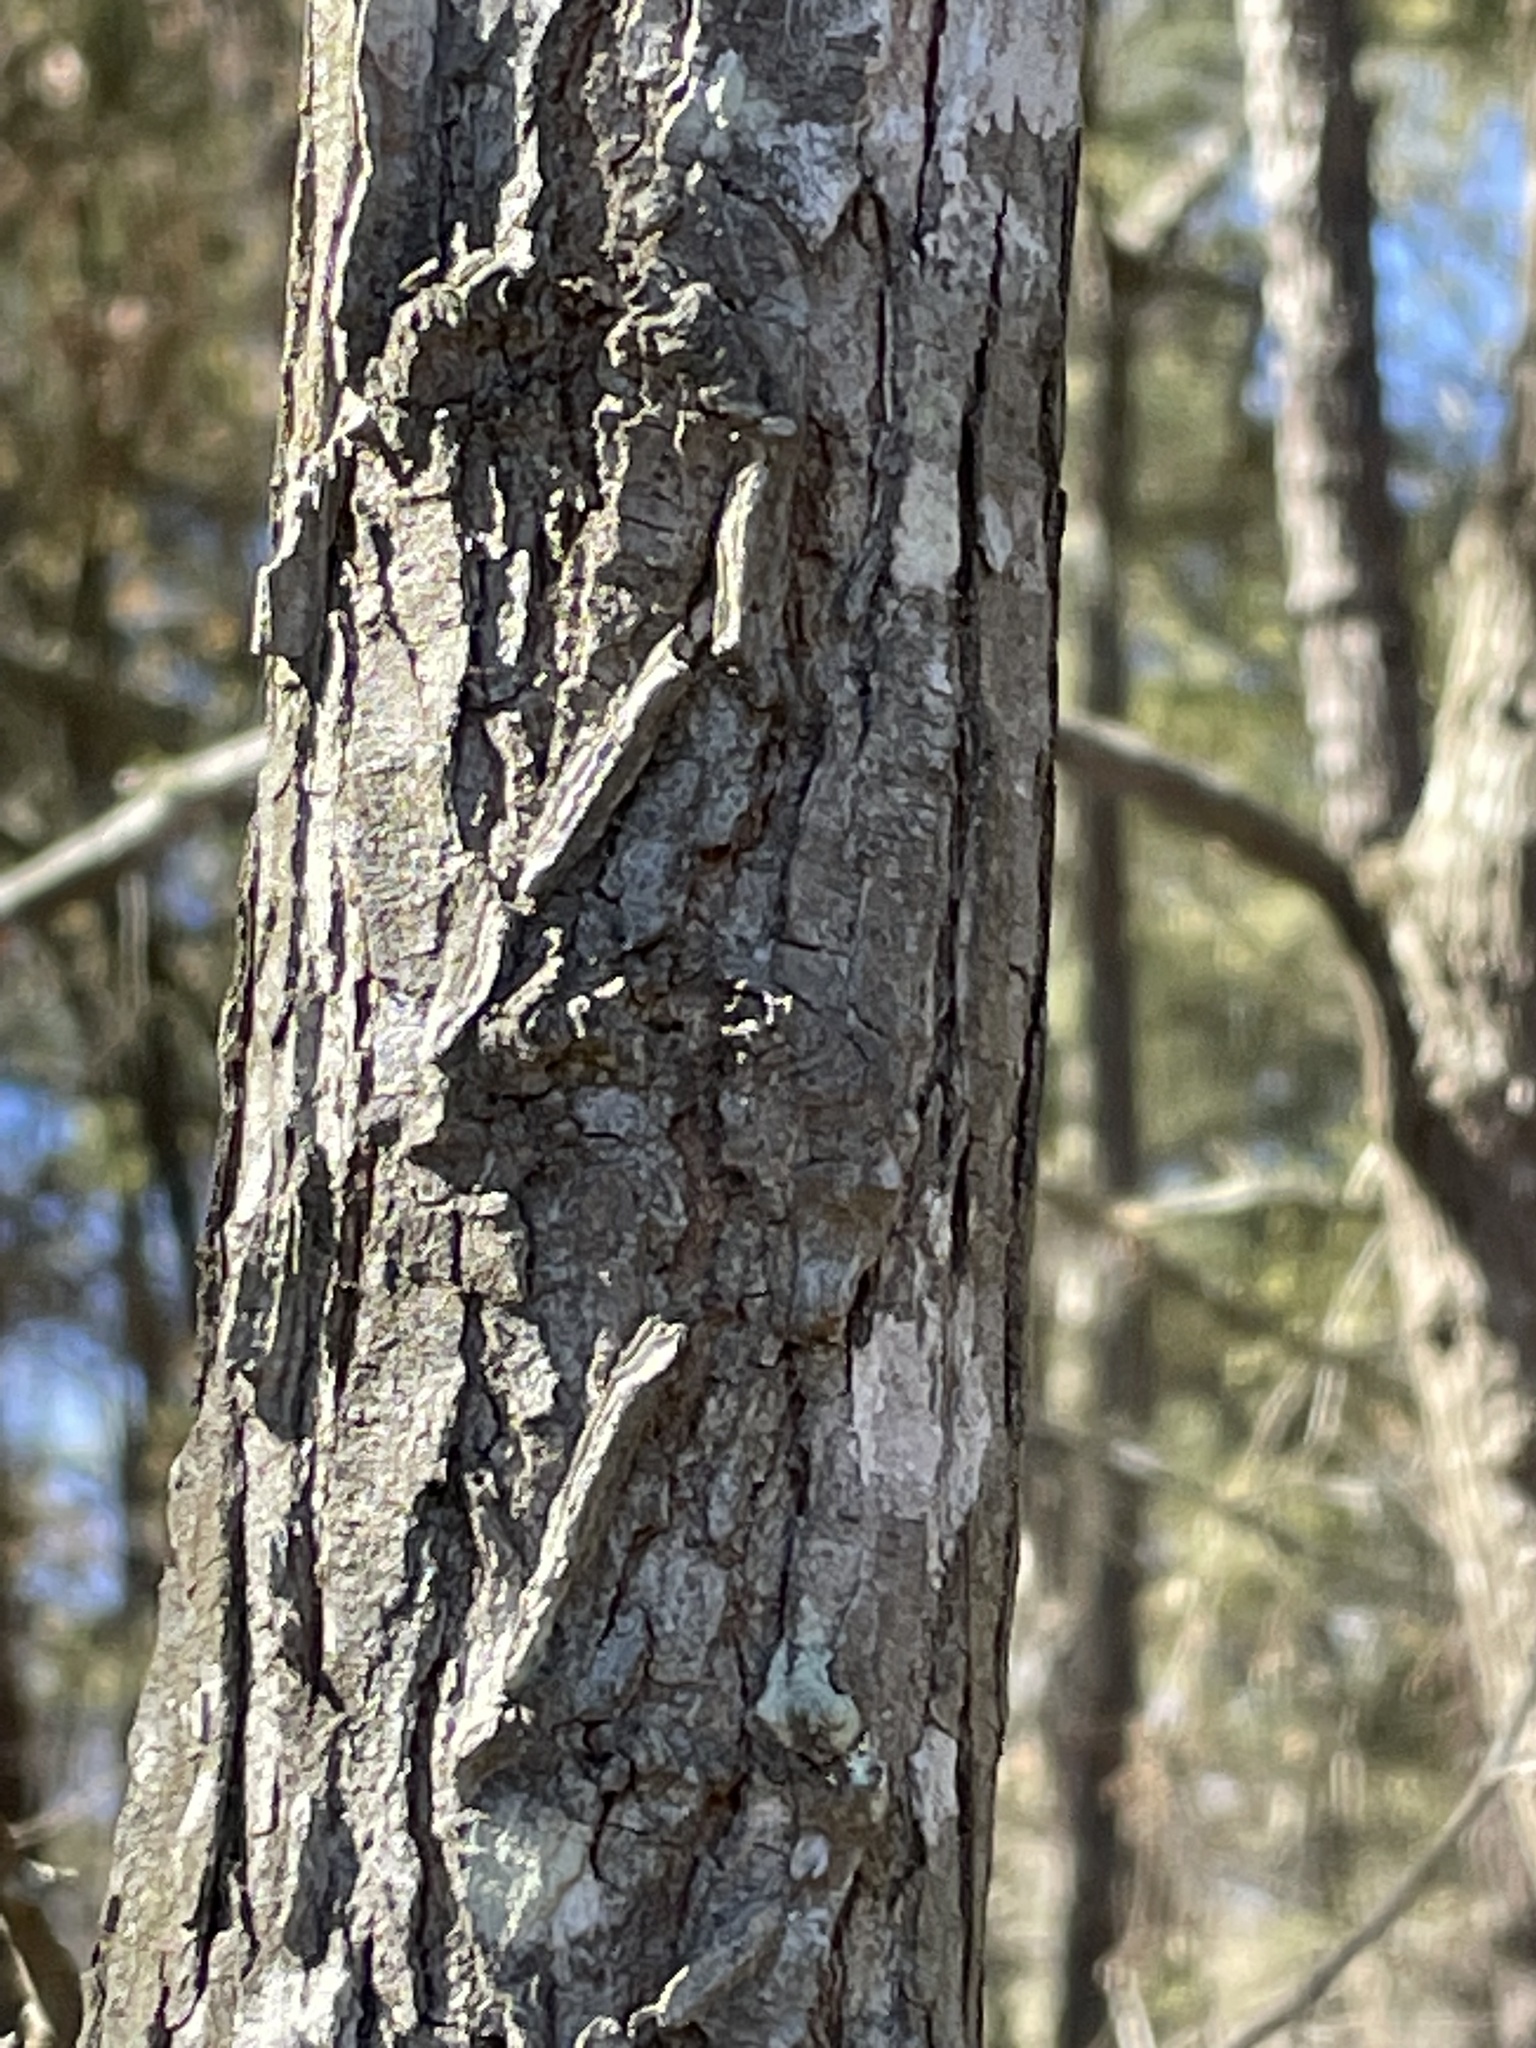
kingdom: Plantae
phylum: Tracheophyta
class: Magnoliopsida
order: Rosales
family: Ulmaceae
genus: Ulmus
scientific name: Ulmus alata
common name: Winged elm
